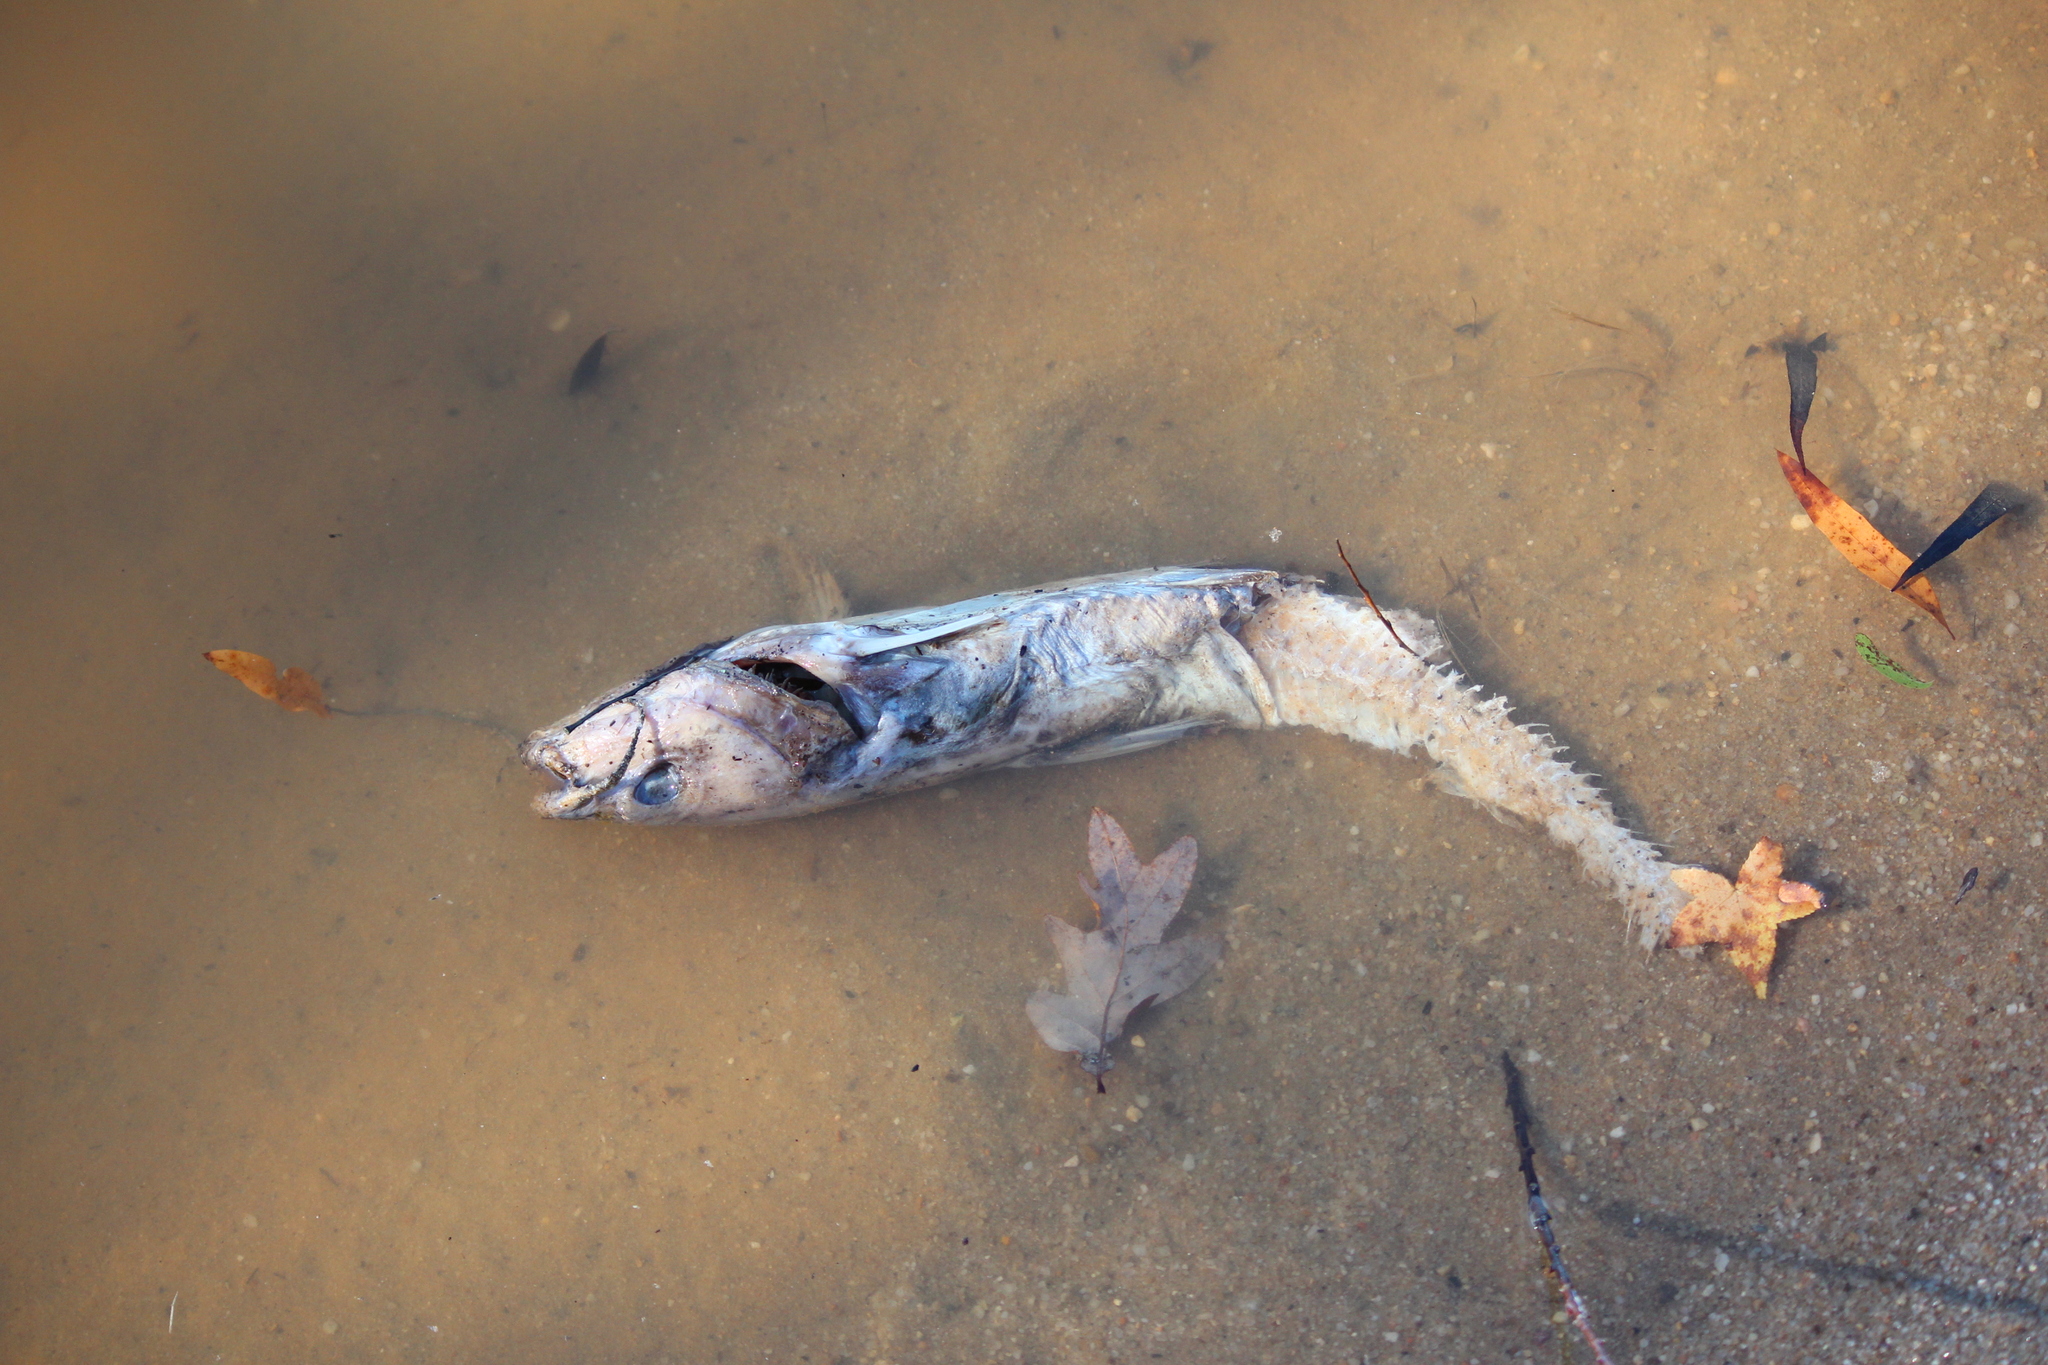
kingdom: Animalia
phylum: Chordata
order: Siluriformes
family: Ictaluridae
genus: Ictalurus
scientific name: Ictalurus furcatus
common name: Blue catfish
